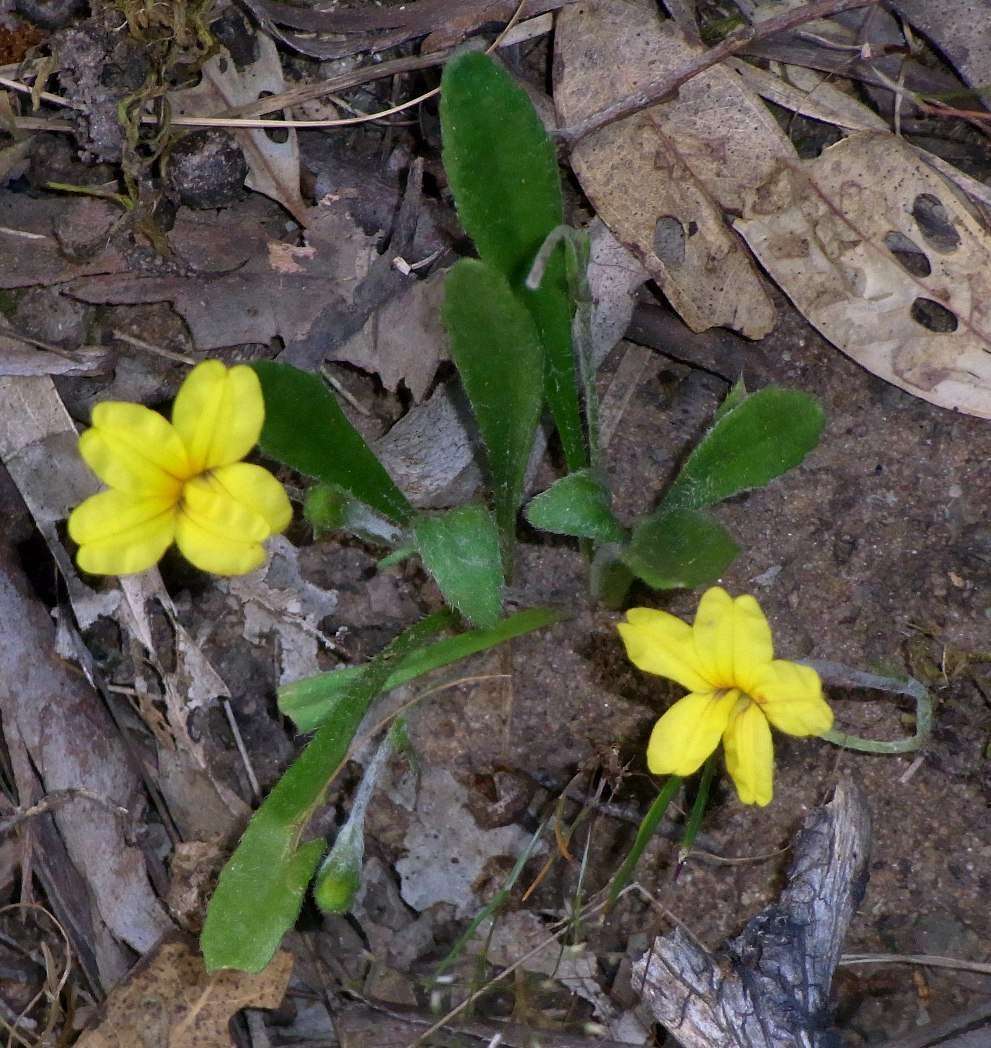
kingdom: Plantae
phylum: Tracheophyta
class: Magnoliopsida
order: Asterales
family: Goodeniaceae
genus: Goodenia
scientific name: Goodenia geniculata
